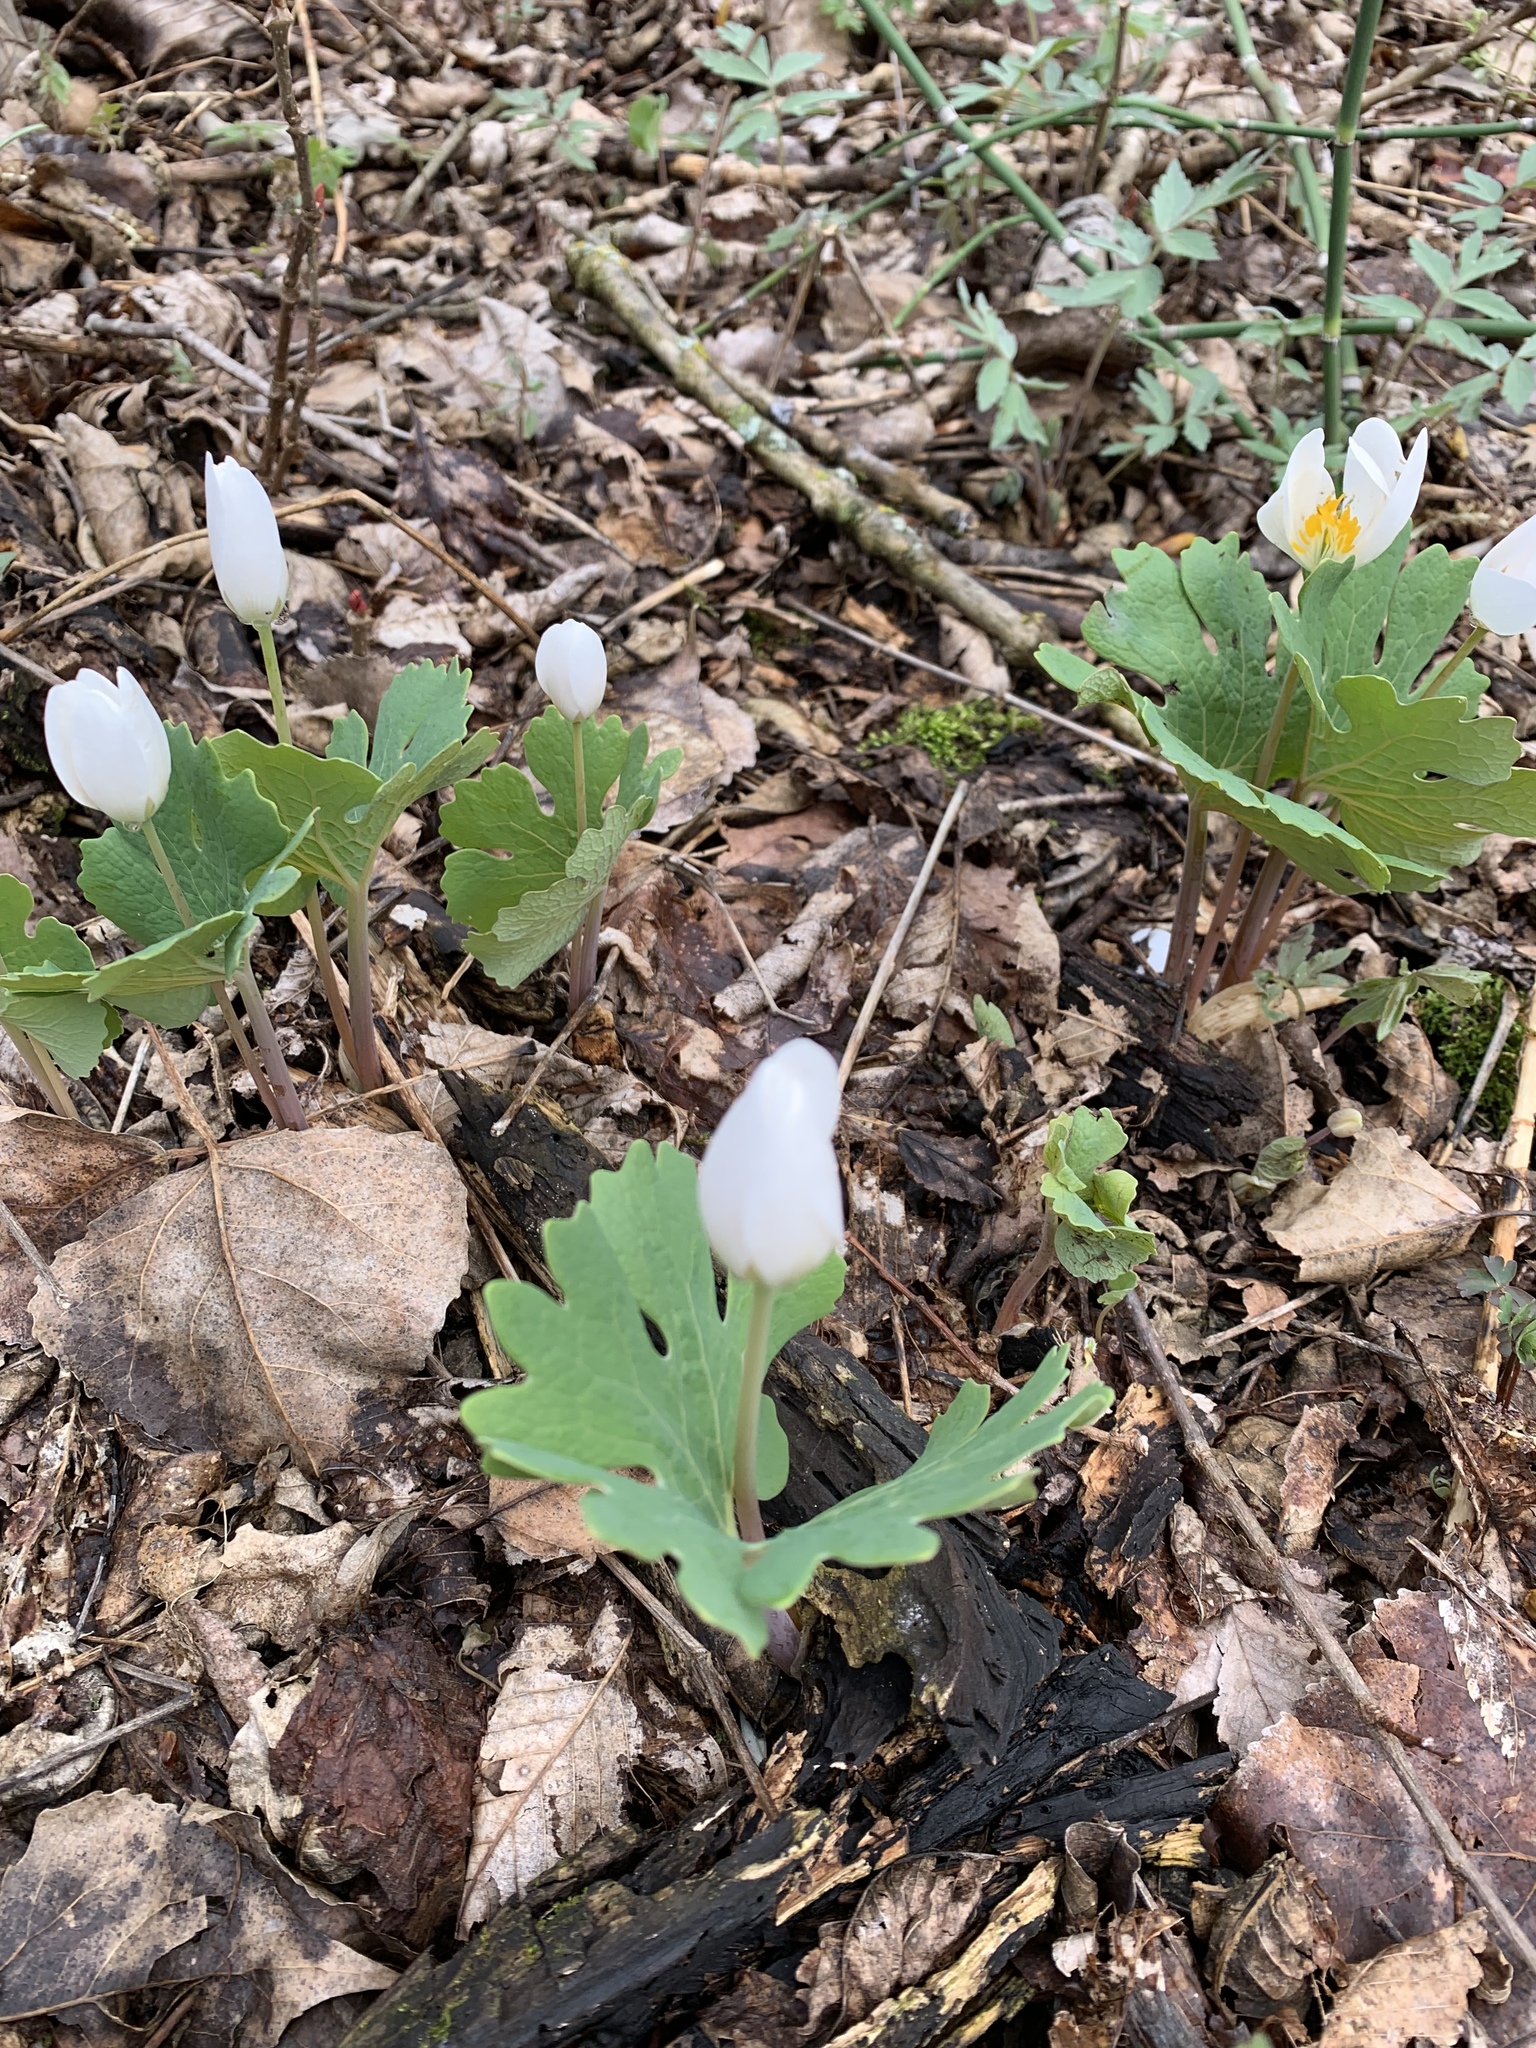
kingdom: Plantae
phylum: Tracheophyta
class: Magnoliopsida
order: Ranunculales
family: Papaveraceae
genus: Sanguinaria
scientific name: Sanguinaria canadensis
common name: Bloodroot
